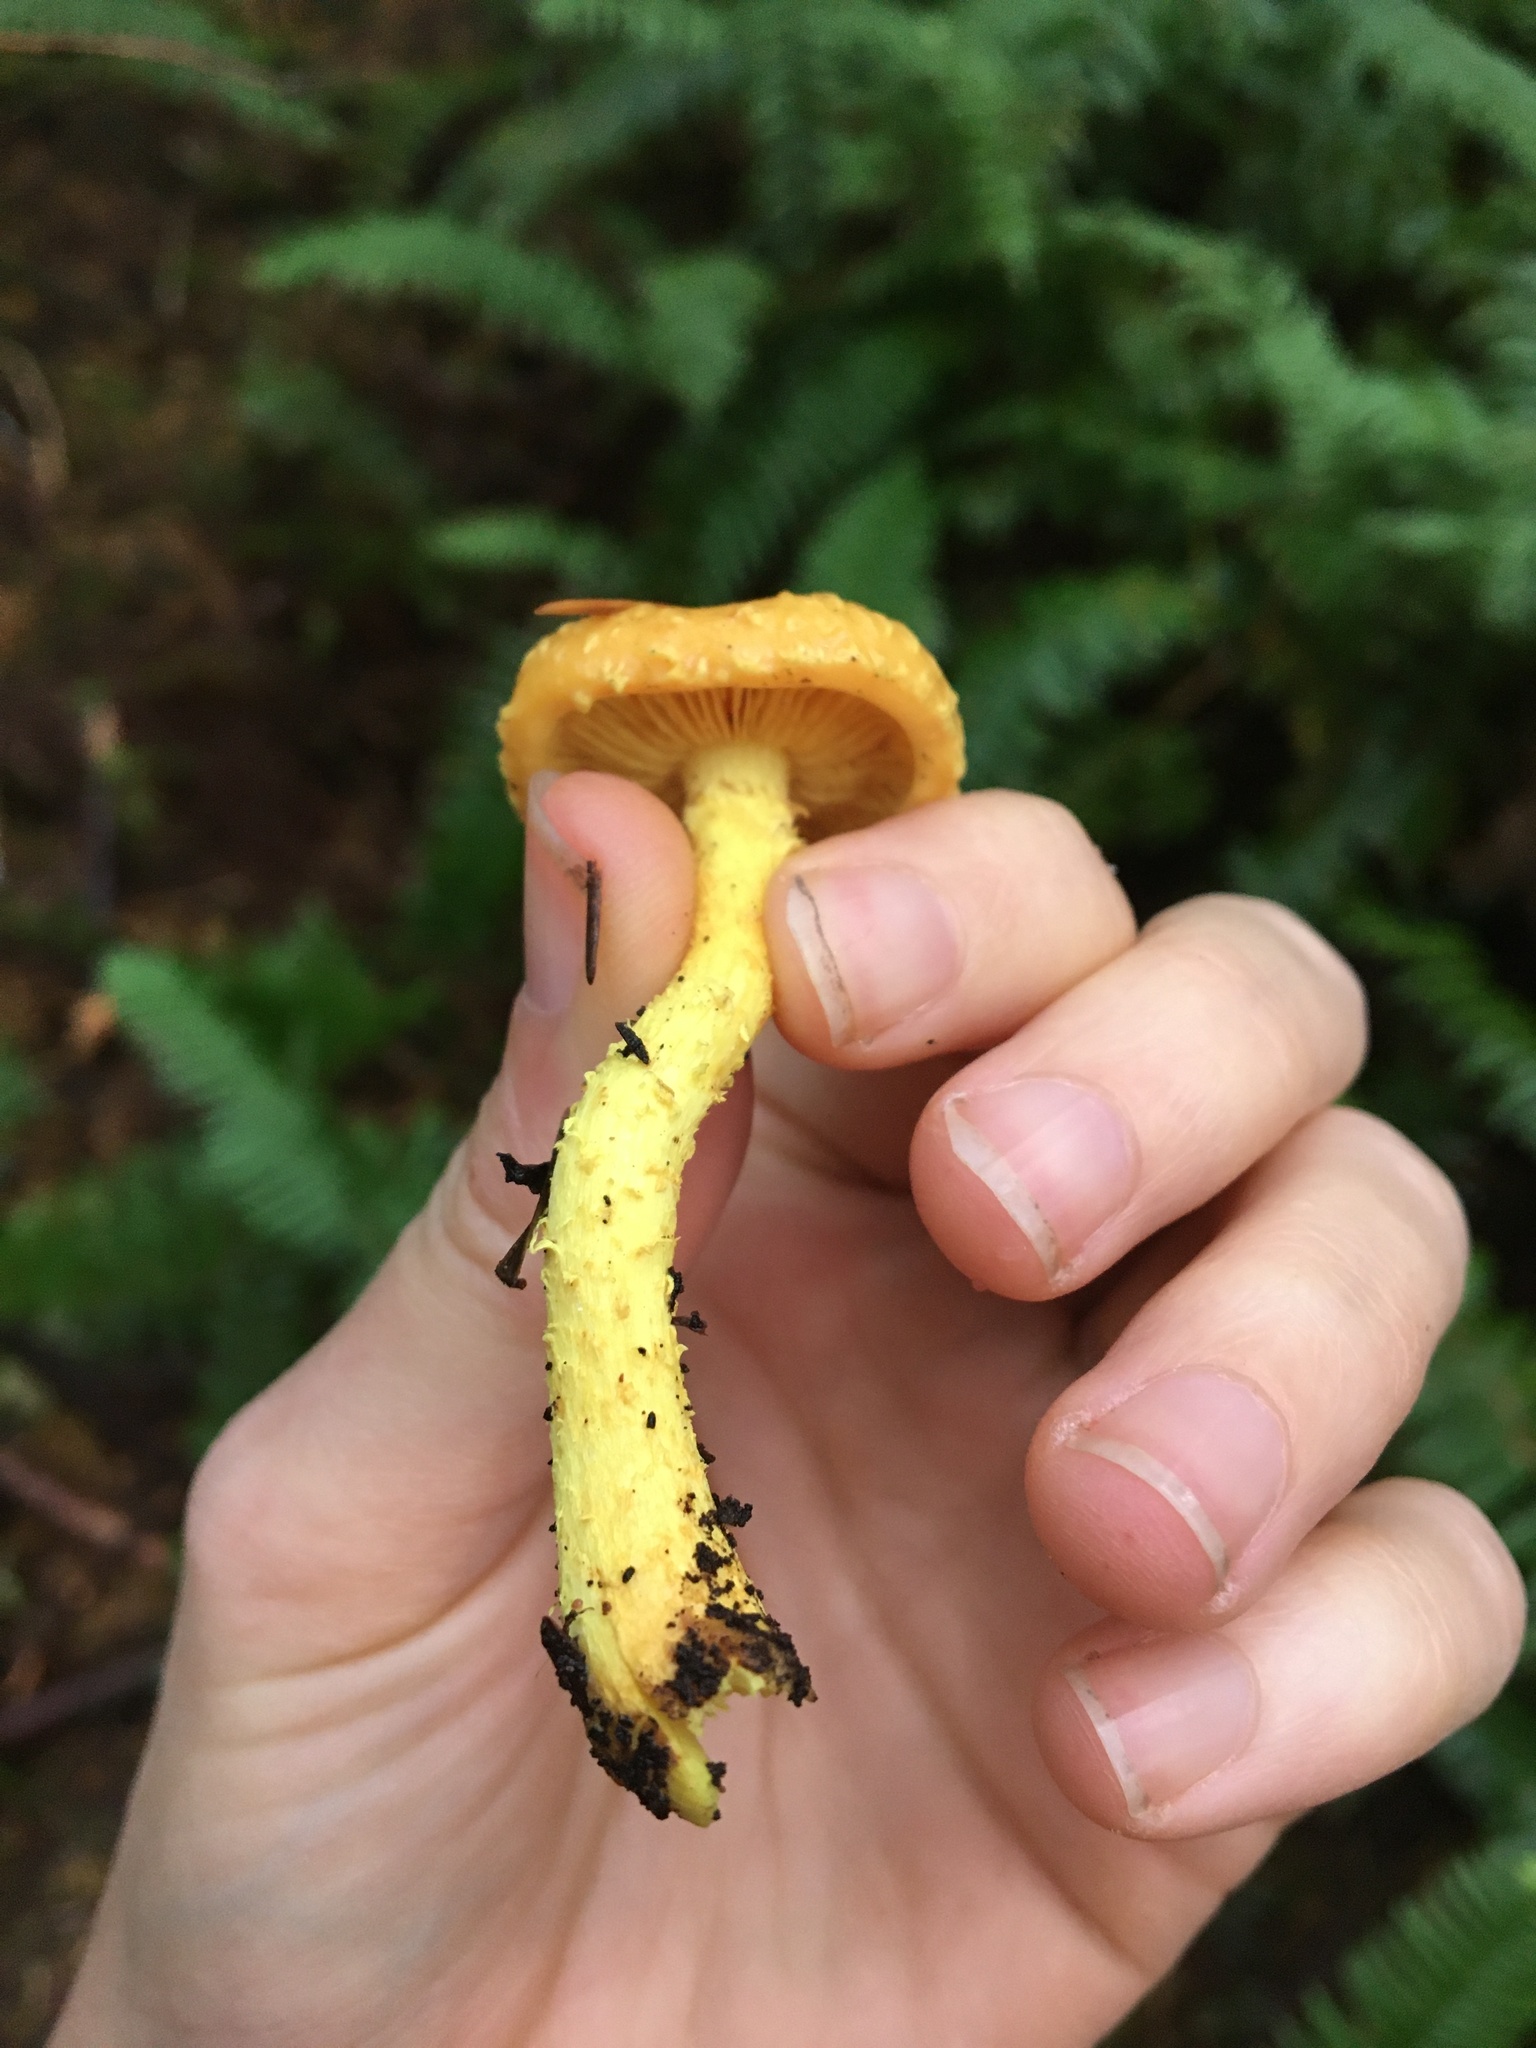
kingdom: Fungi
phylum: Basidiomycota
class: Agaricomycetes
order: Agaricales
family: Strophariaceae
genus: Pholiota
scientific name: Pholiota flammans
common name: Flaming scalycap
